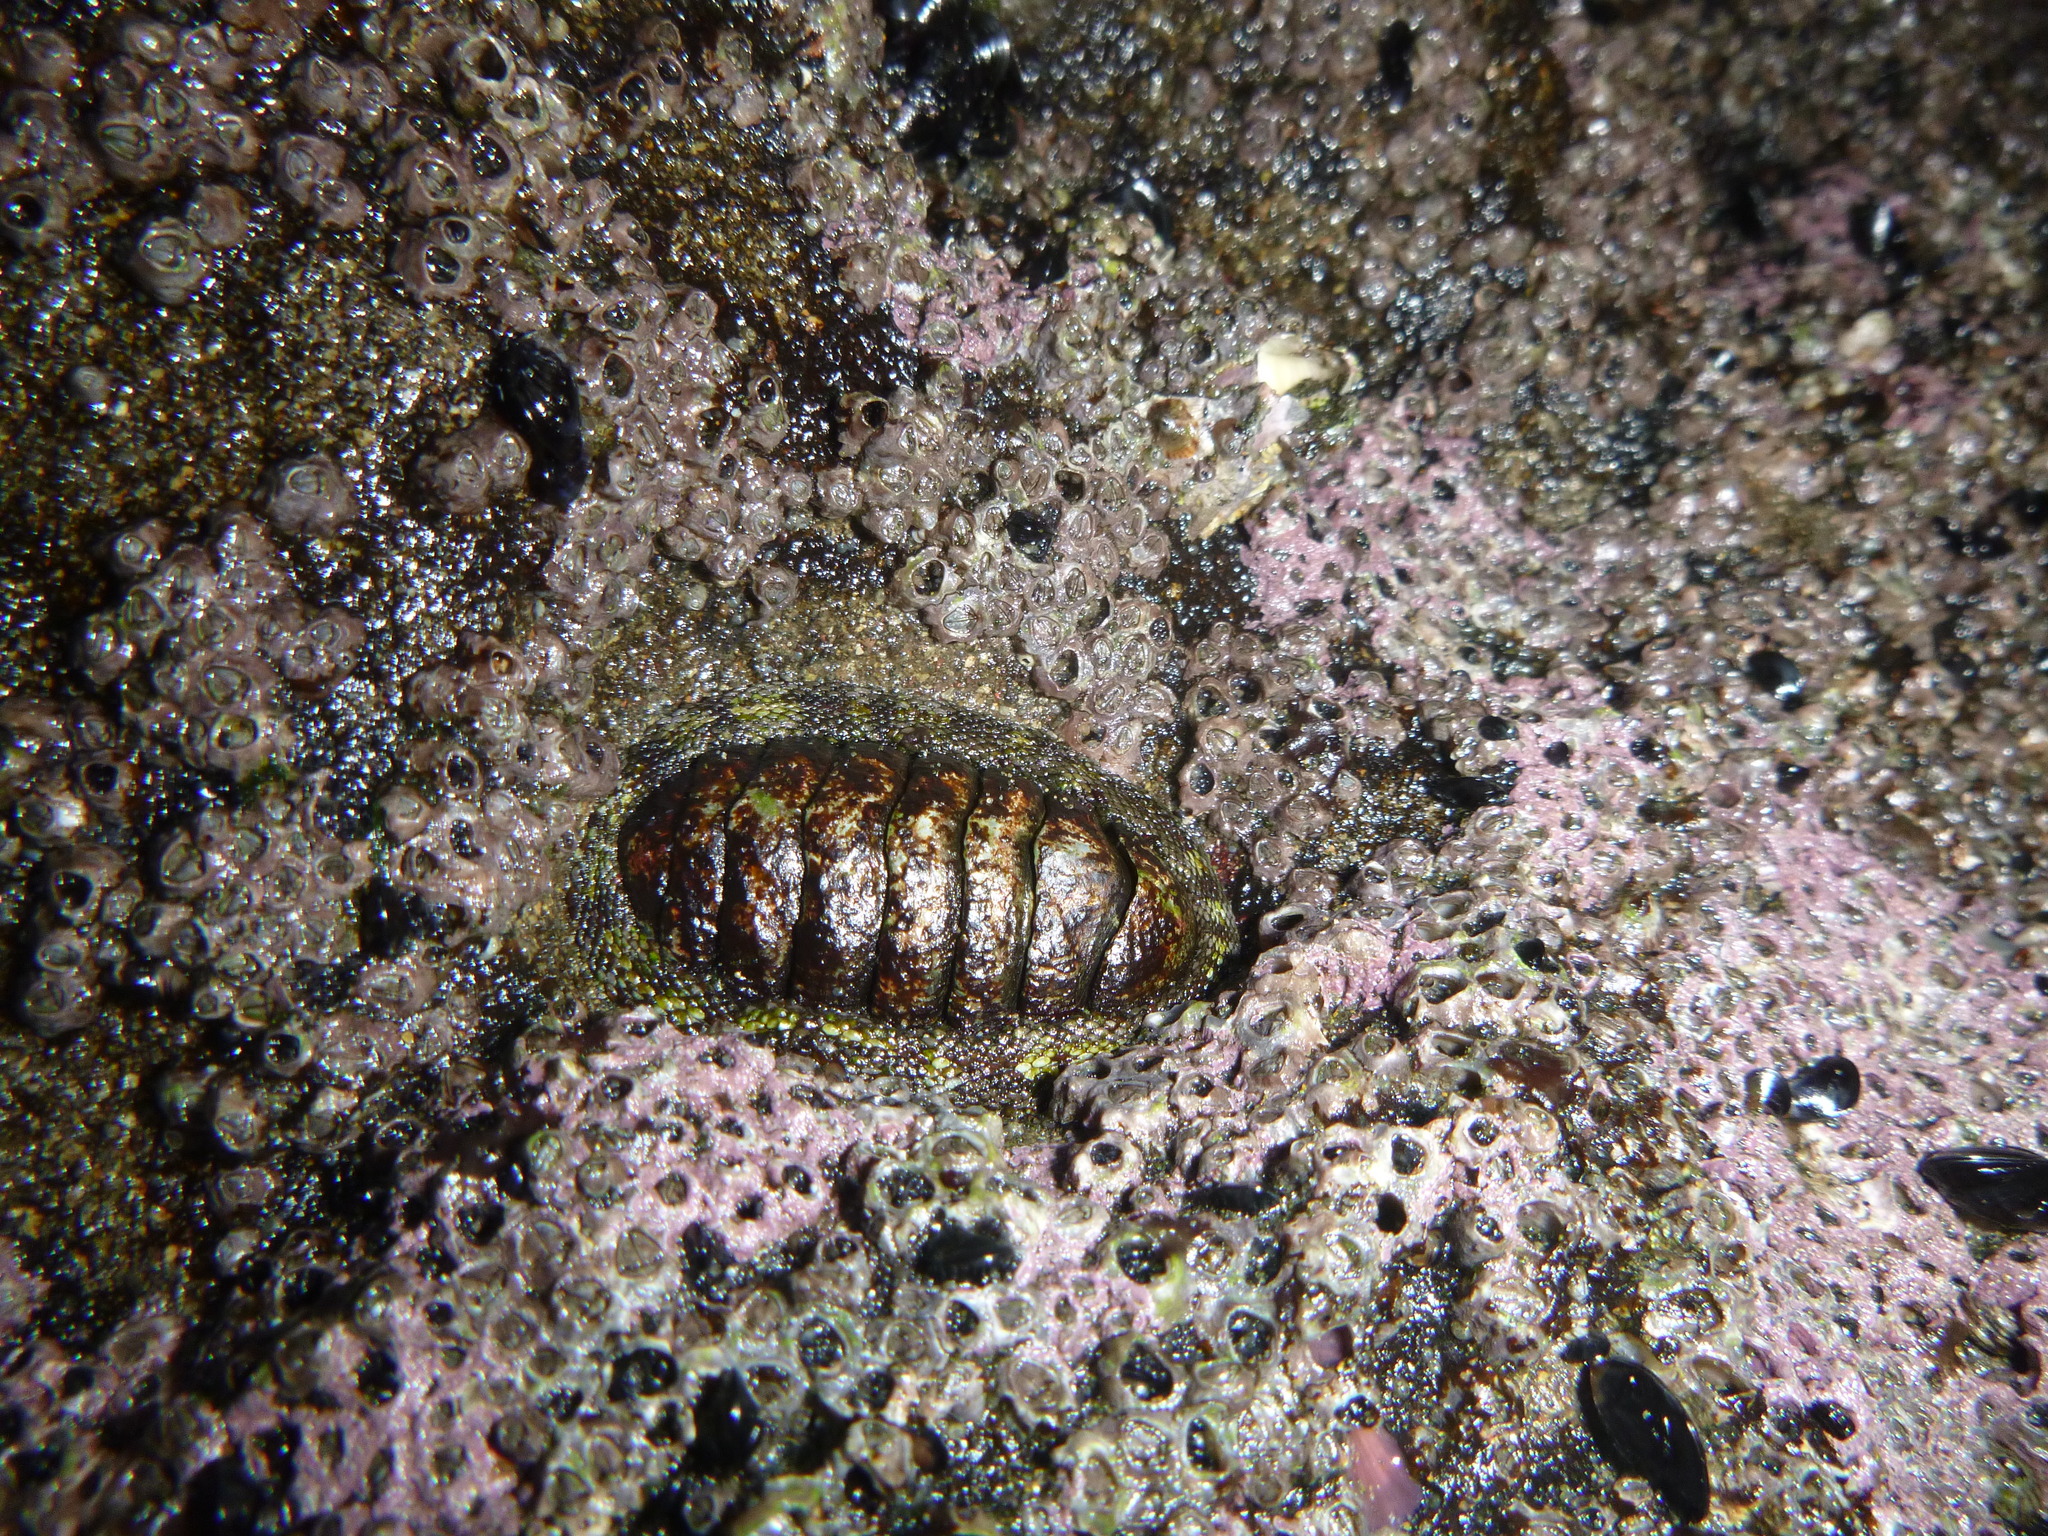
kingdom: Animalia
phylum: Mollusca
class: Polyplacophora
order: Chitonida
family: Chitonidae
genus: Sypharochiton
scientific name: Sypharochiton pelliserpentis
